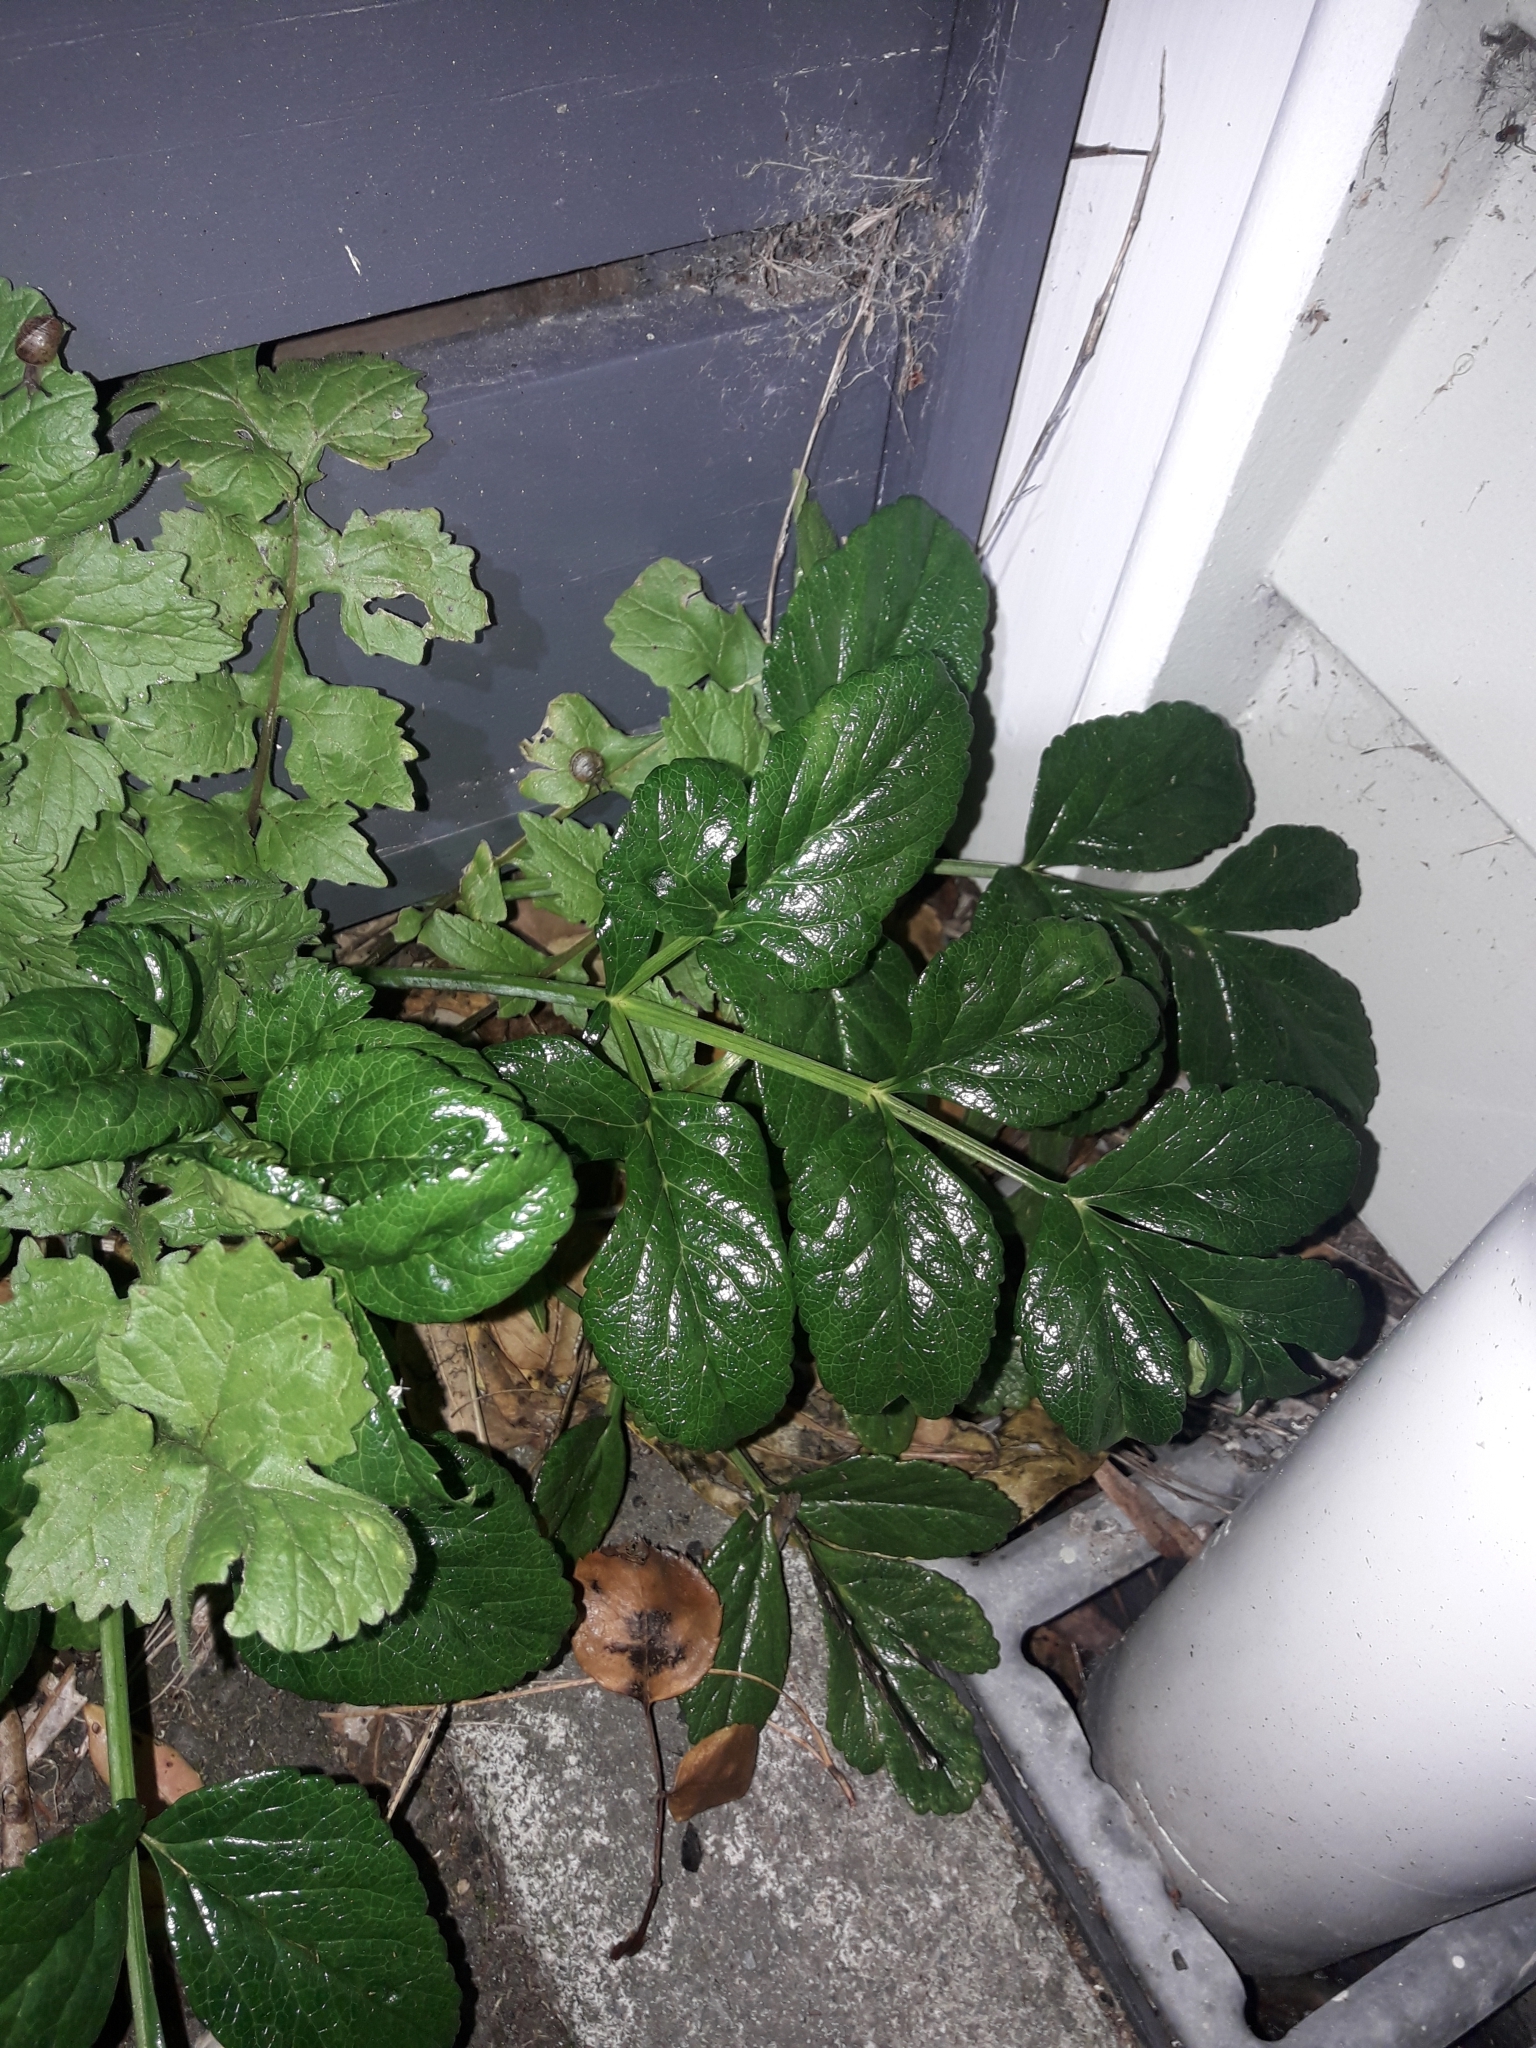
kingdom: Plantae
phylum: Tracheophyta
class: Magnoliopsida
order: Apiales
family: Apiaceae
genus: Angelica
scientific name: Angelica pachycarpa
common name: Portuguese angelica
